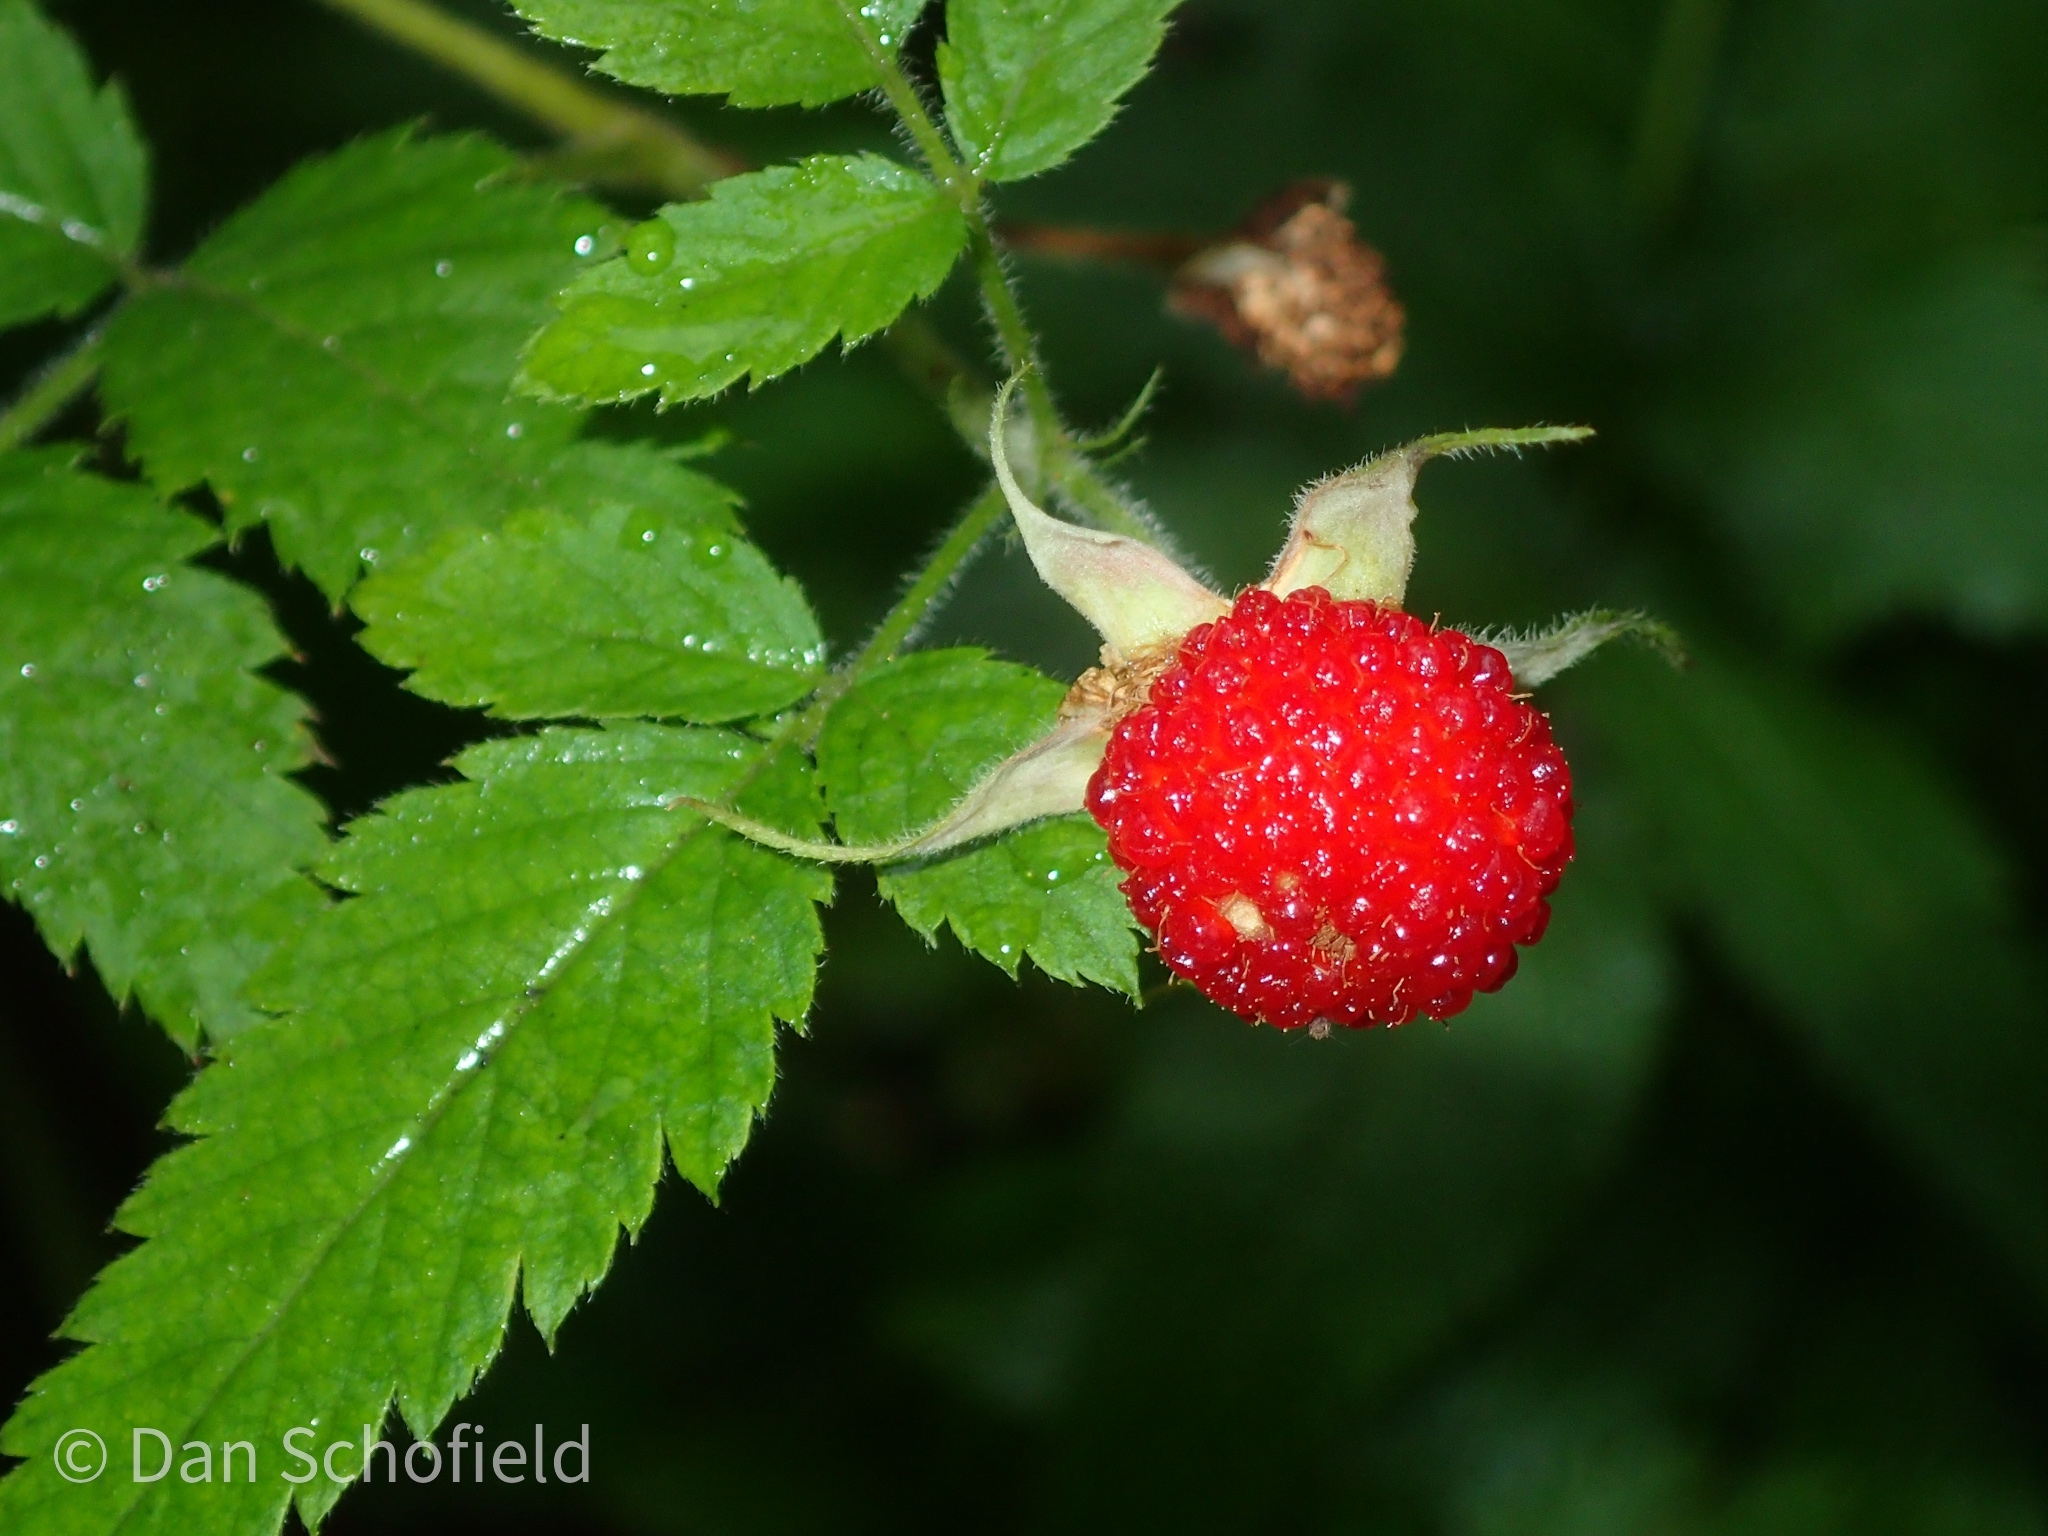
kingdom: Plantae
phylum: Tracheophyta
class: Magnoliopsida
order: Rosales
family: Rosaceae
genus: Rubus
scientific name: Rubus rosifolius
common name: Roseleaf raspberry
